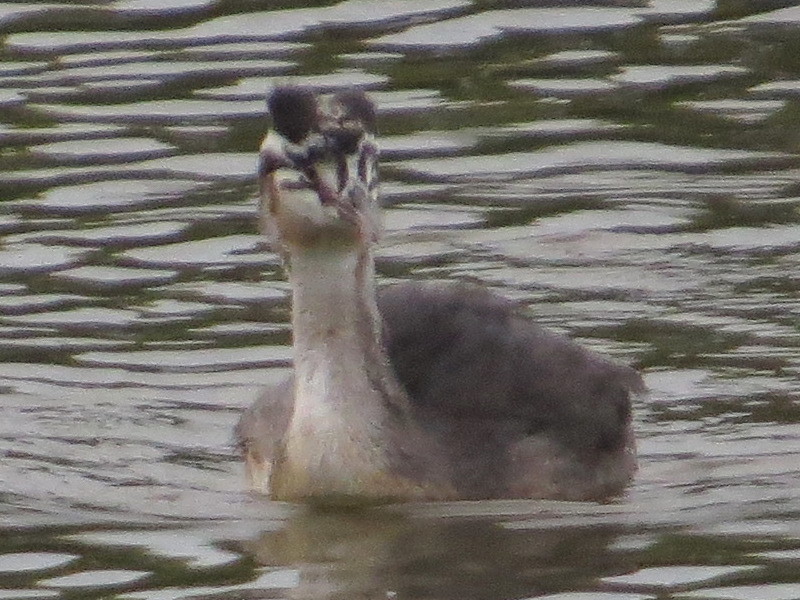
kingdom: Animalia
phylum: Chordata
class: Aves
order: Podicipediformes
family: Podicipedidae
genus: Podiceps
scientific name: Podiceps cristatus
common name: Great crested grebe
